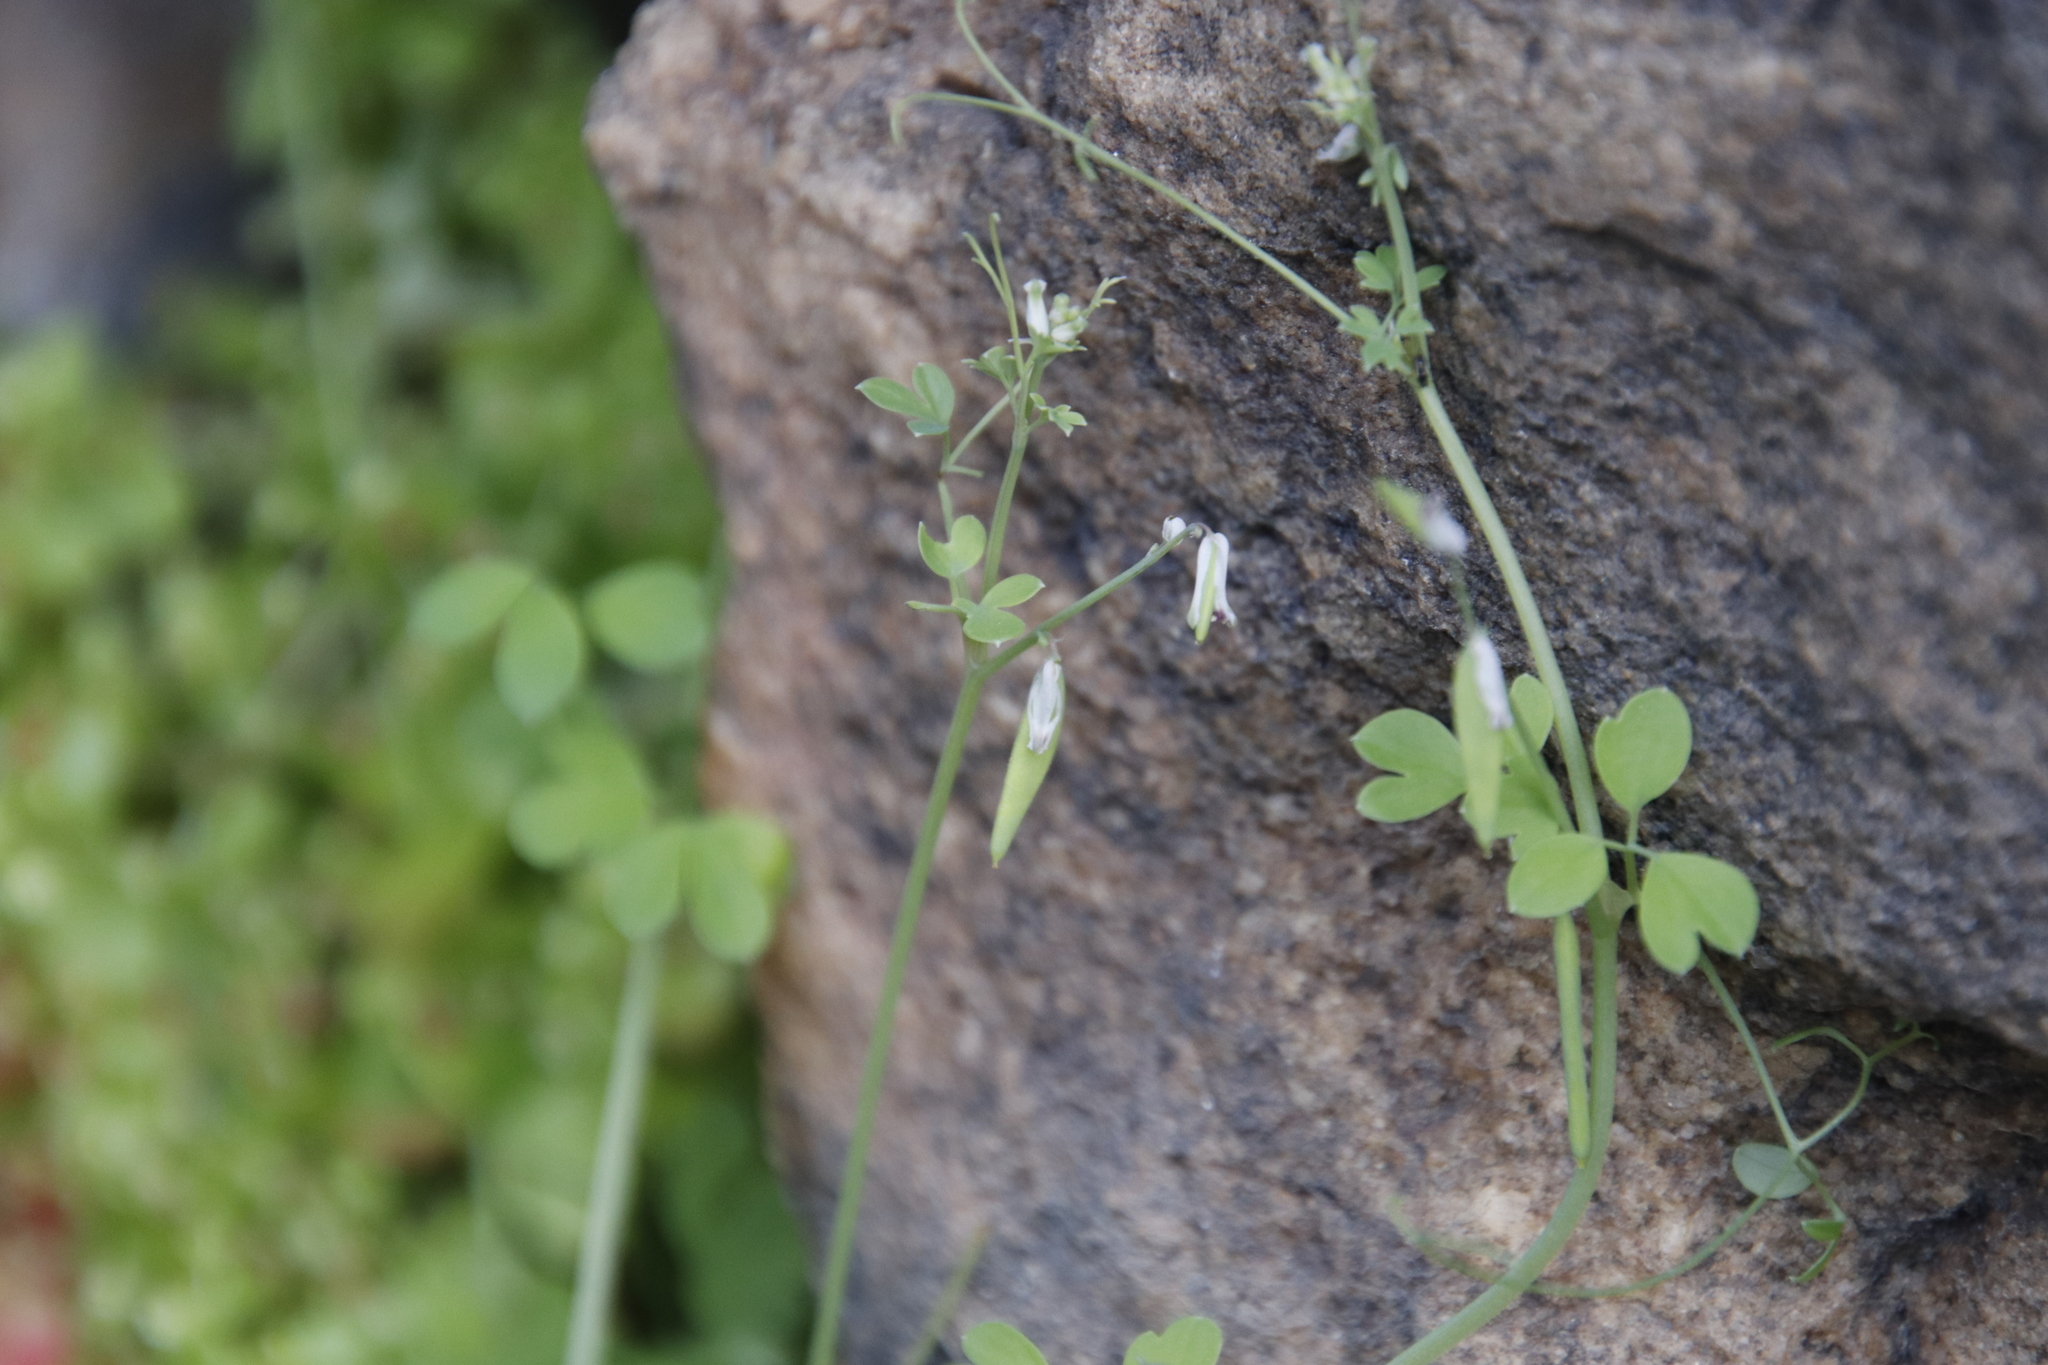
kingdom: Plantae
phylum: Tracheophyta
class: Magnoliopsida
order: Ranunculales
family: Papaveraceae
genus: Cysticapnos
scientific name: Cysticapnos cracca
